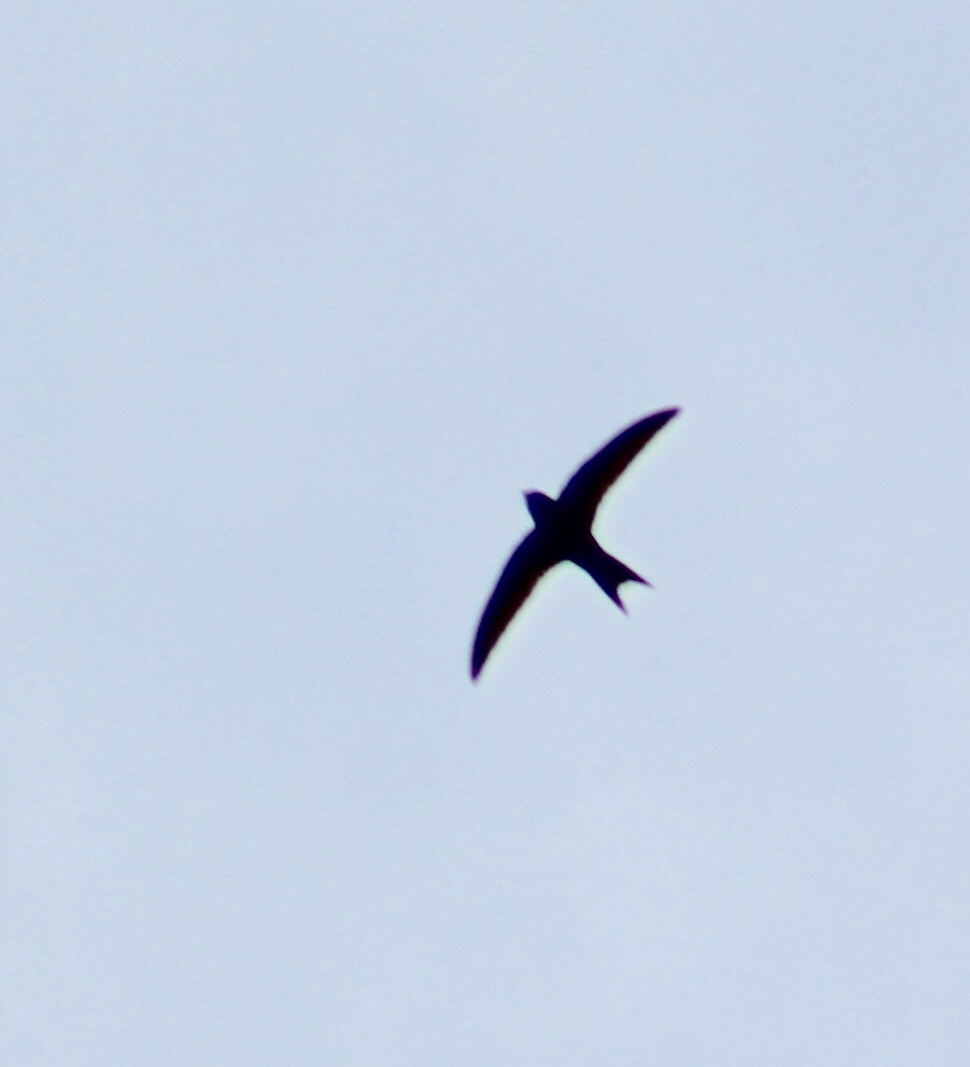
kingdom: Animalia
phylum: Chordata
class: Aves
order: Apodiformes
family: Apodidae
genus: Apus
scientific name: Apus apus
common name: Common swift
